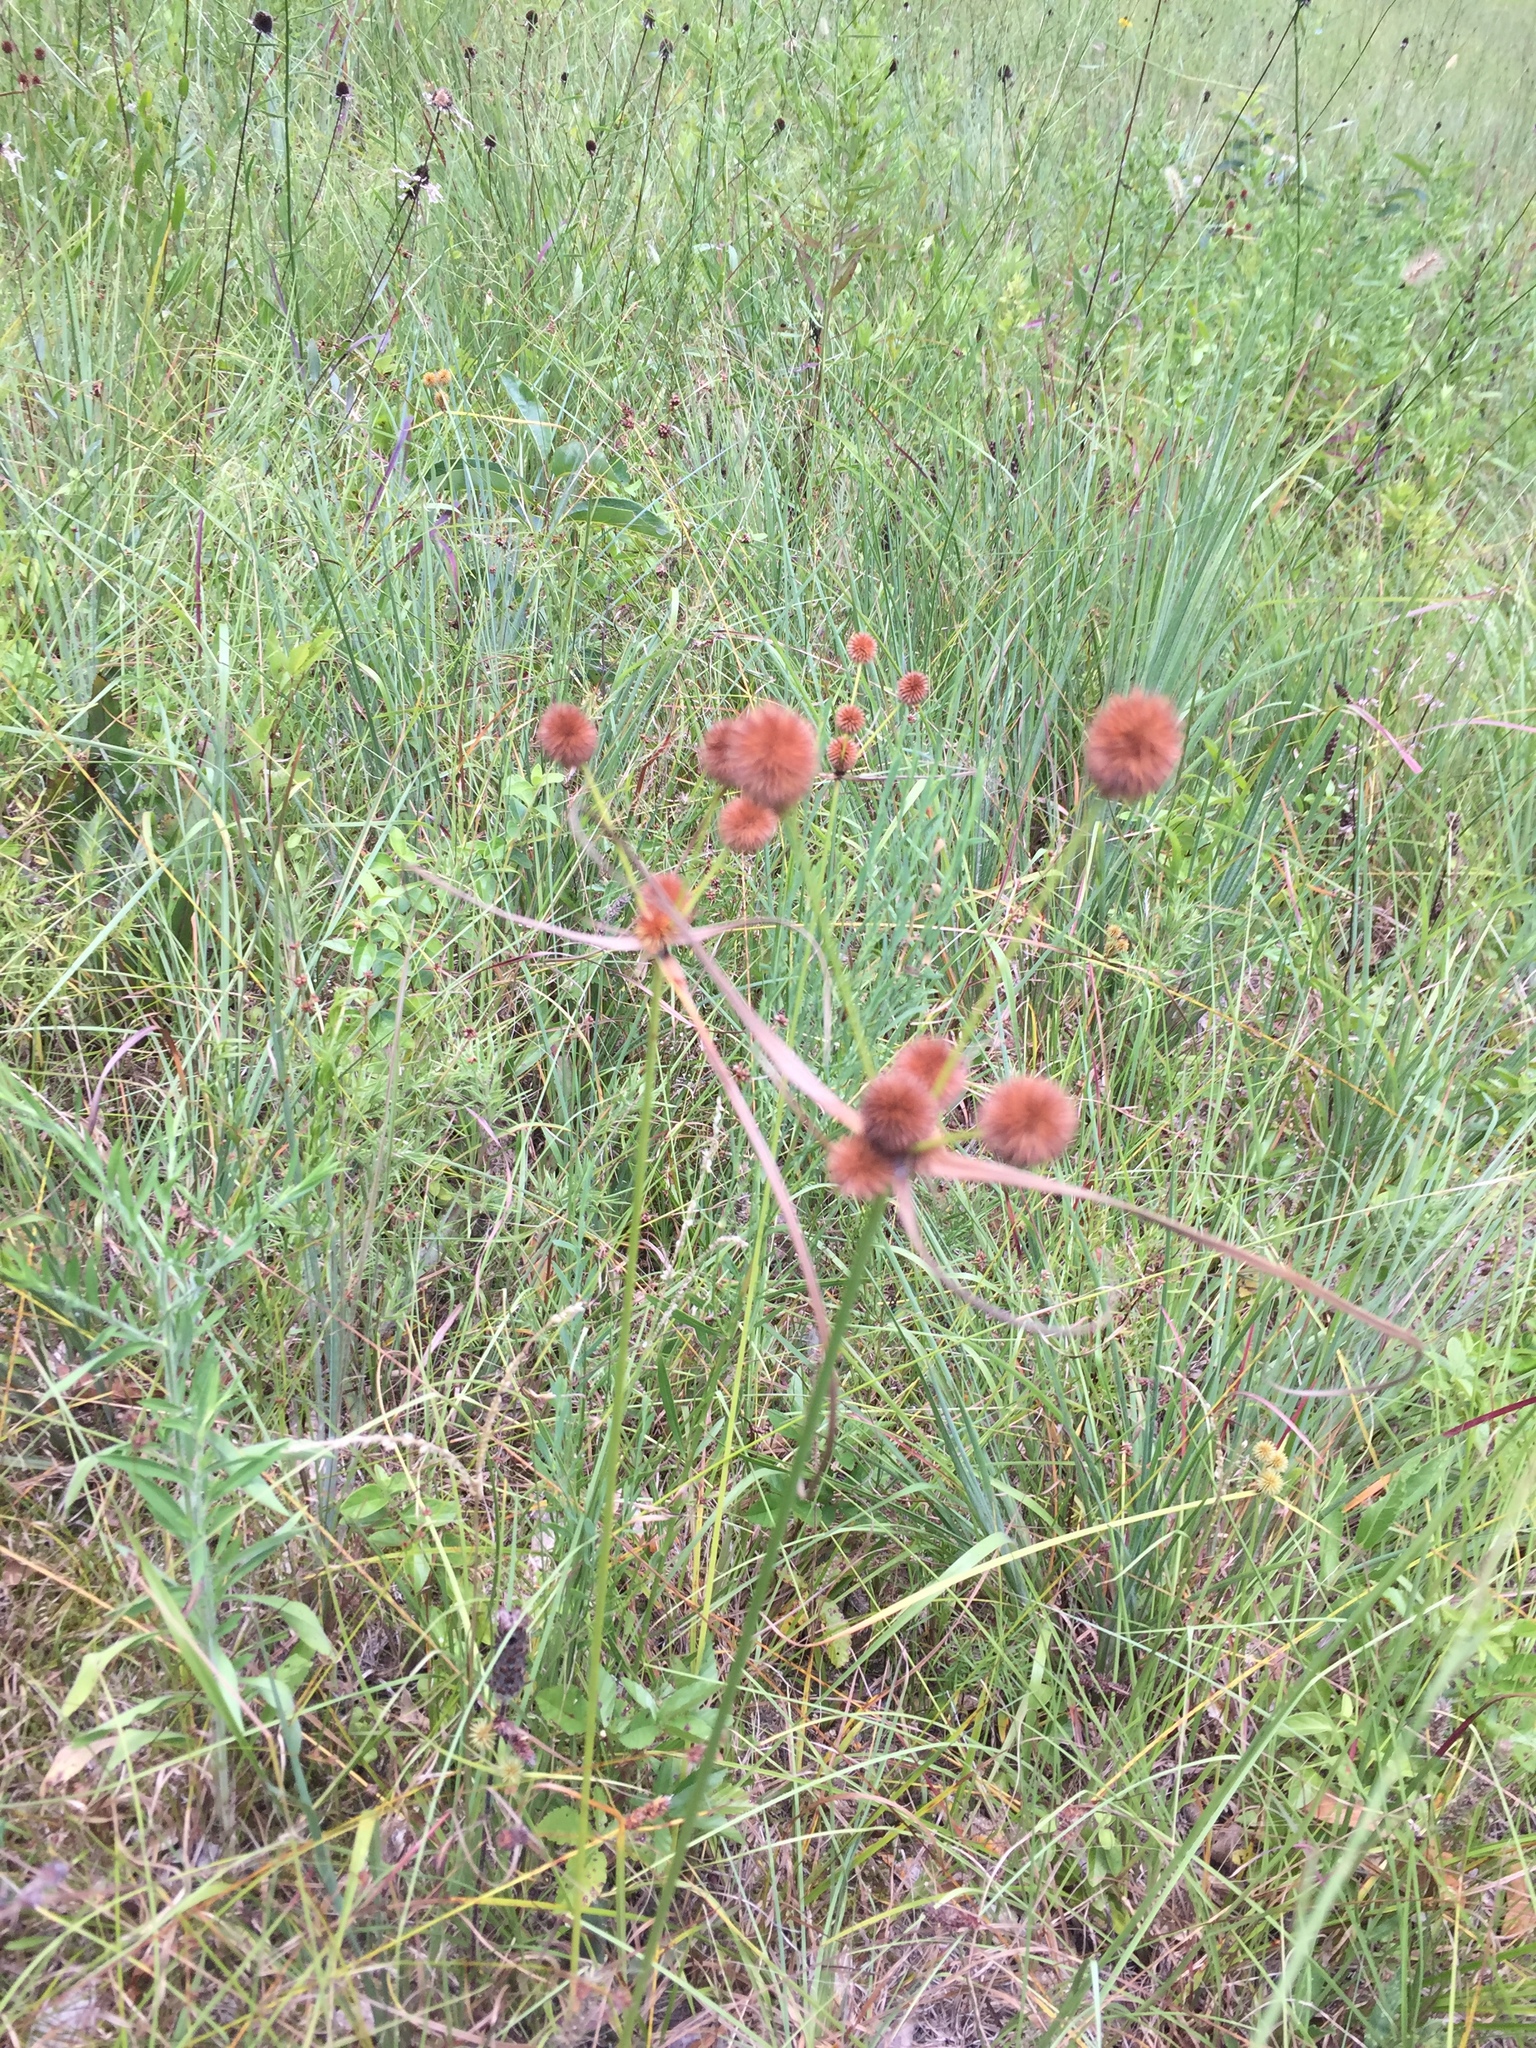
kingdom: Plantae
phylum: Tracheophyta
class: Liliopsida
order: Poales
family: Cyperaceae
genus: Cyperus
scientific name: Cyperus echinatus
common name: Teasel sedge
